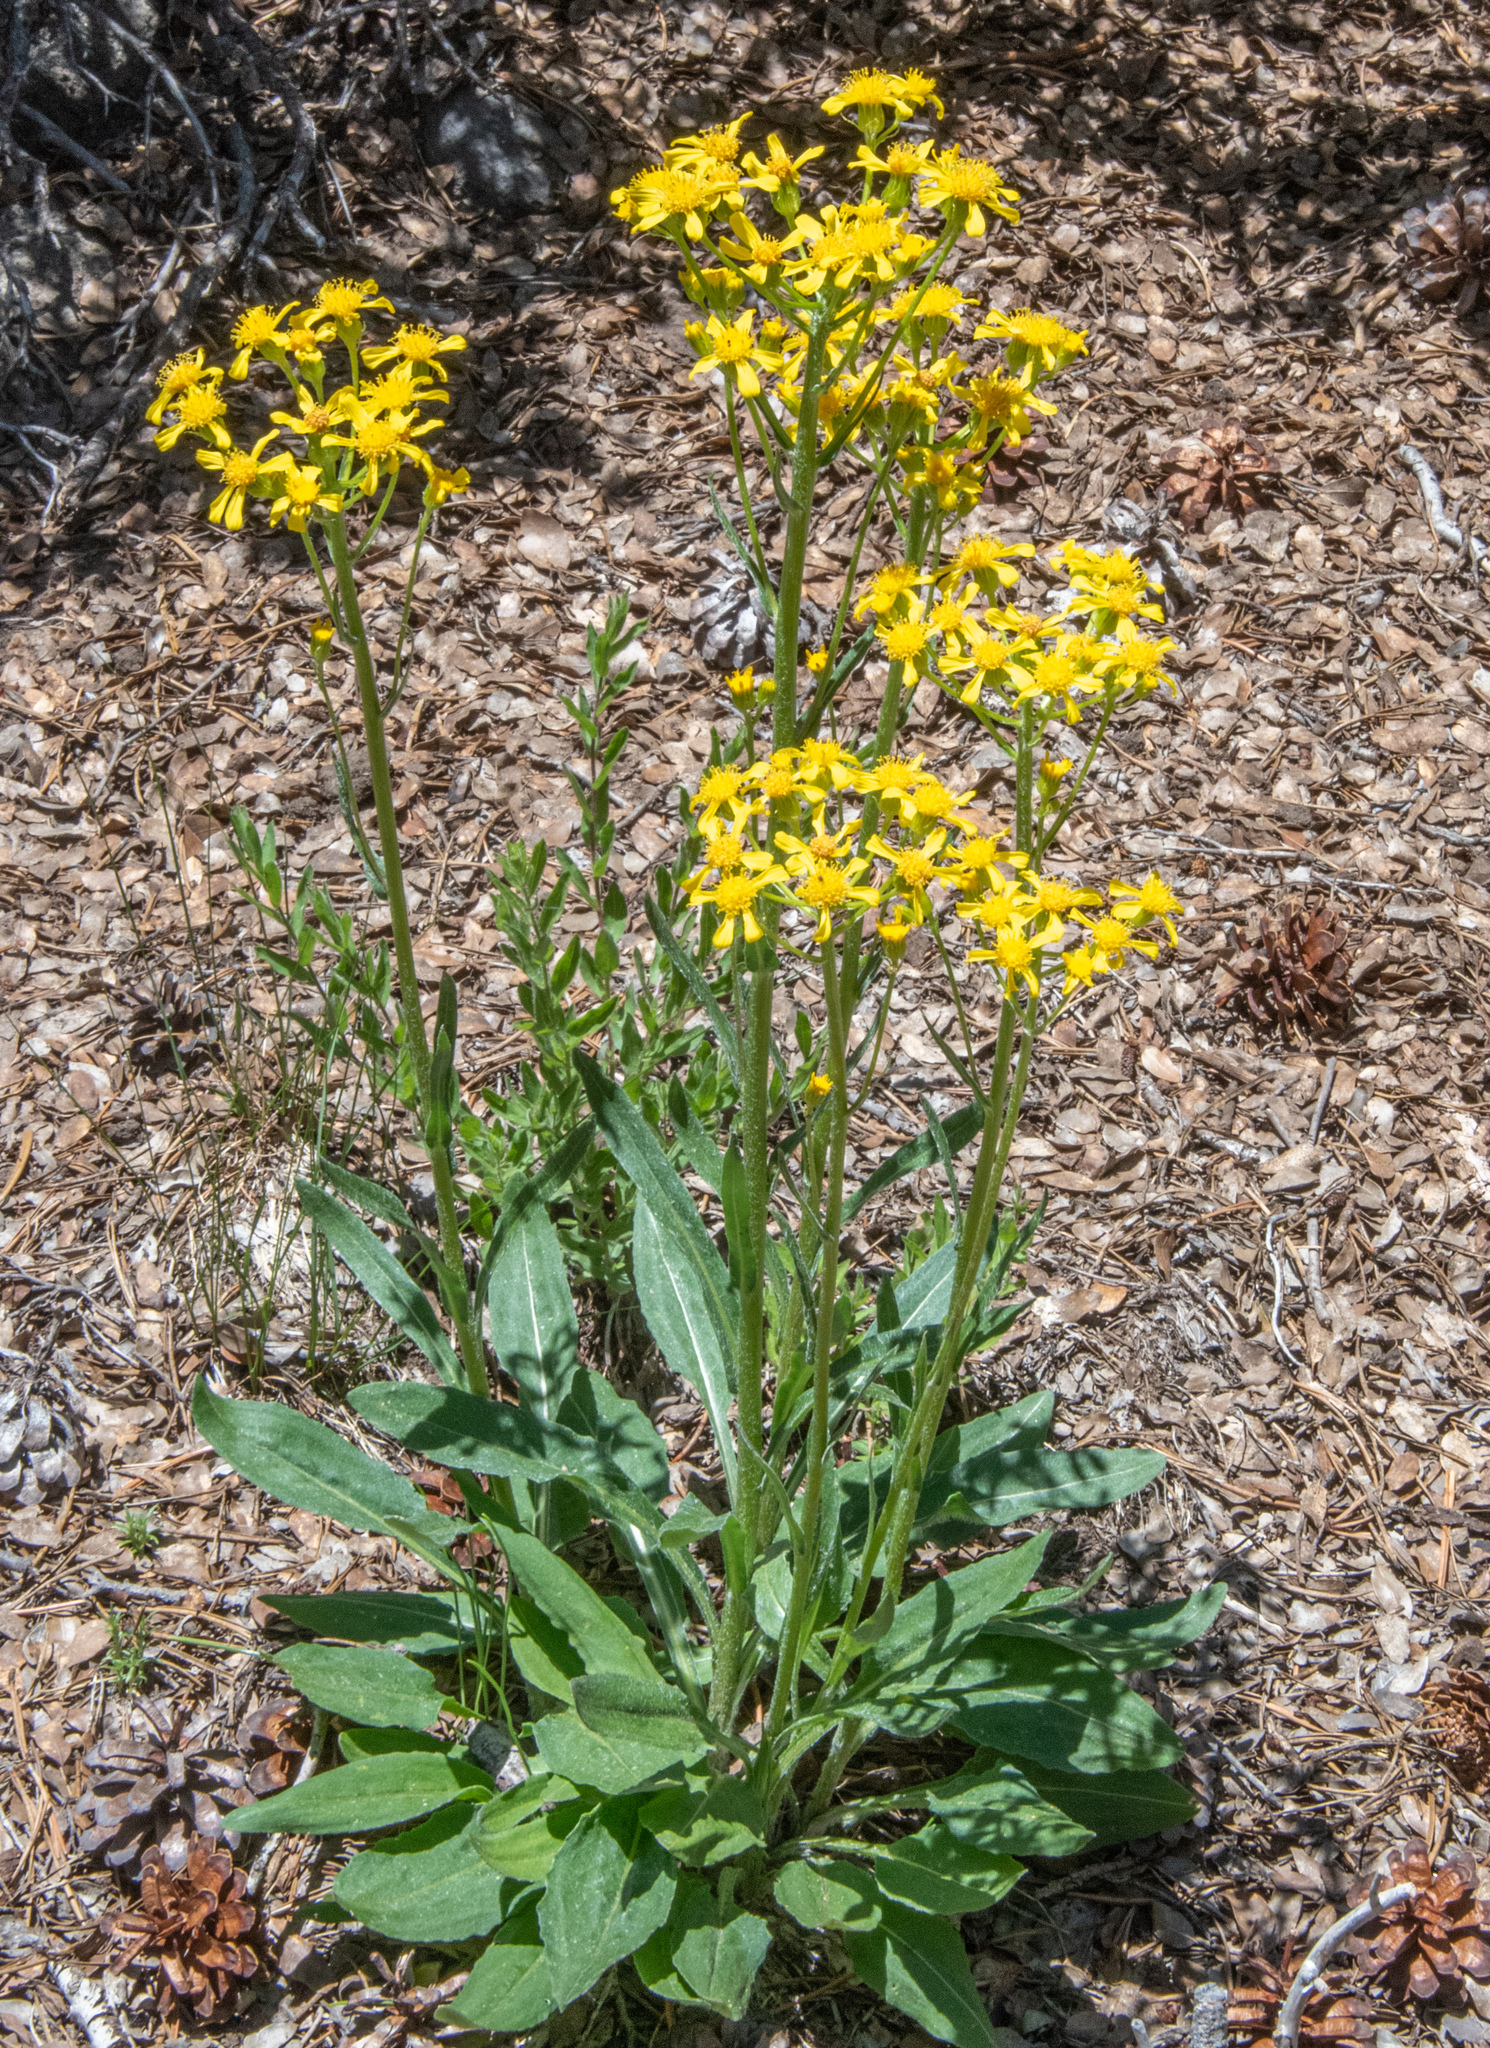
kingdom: Plantae
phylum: Tracheophyta
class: Magnoliopsida
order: Asterales
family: Asteraceae
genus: Senecio
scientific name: Senecio integerrimus
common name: Gaugeplant
